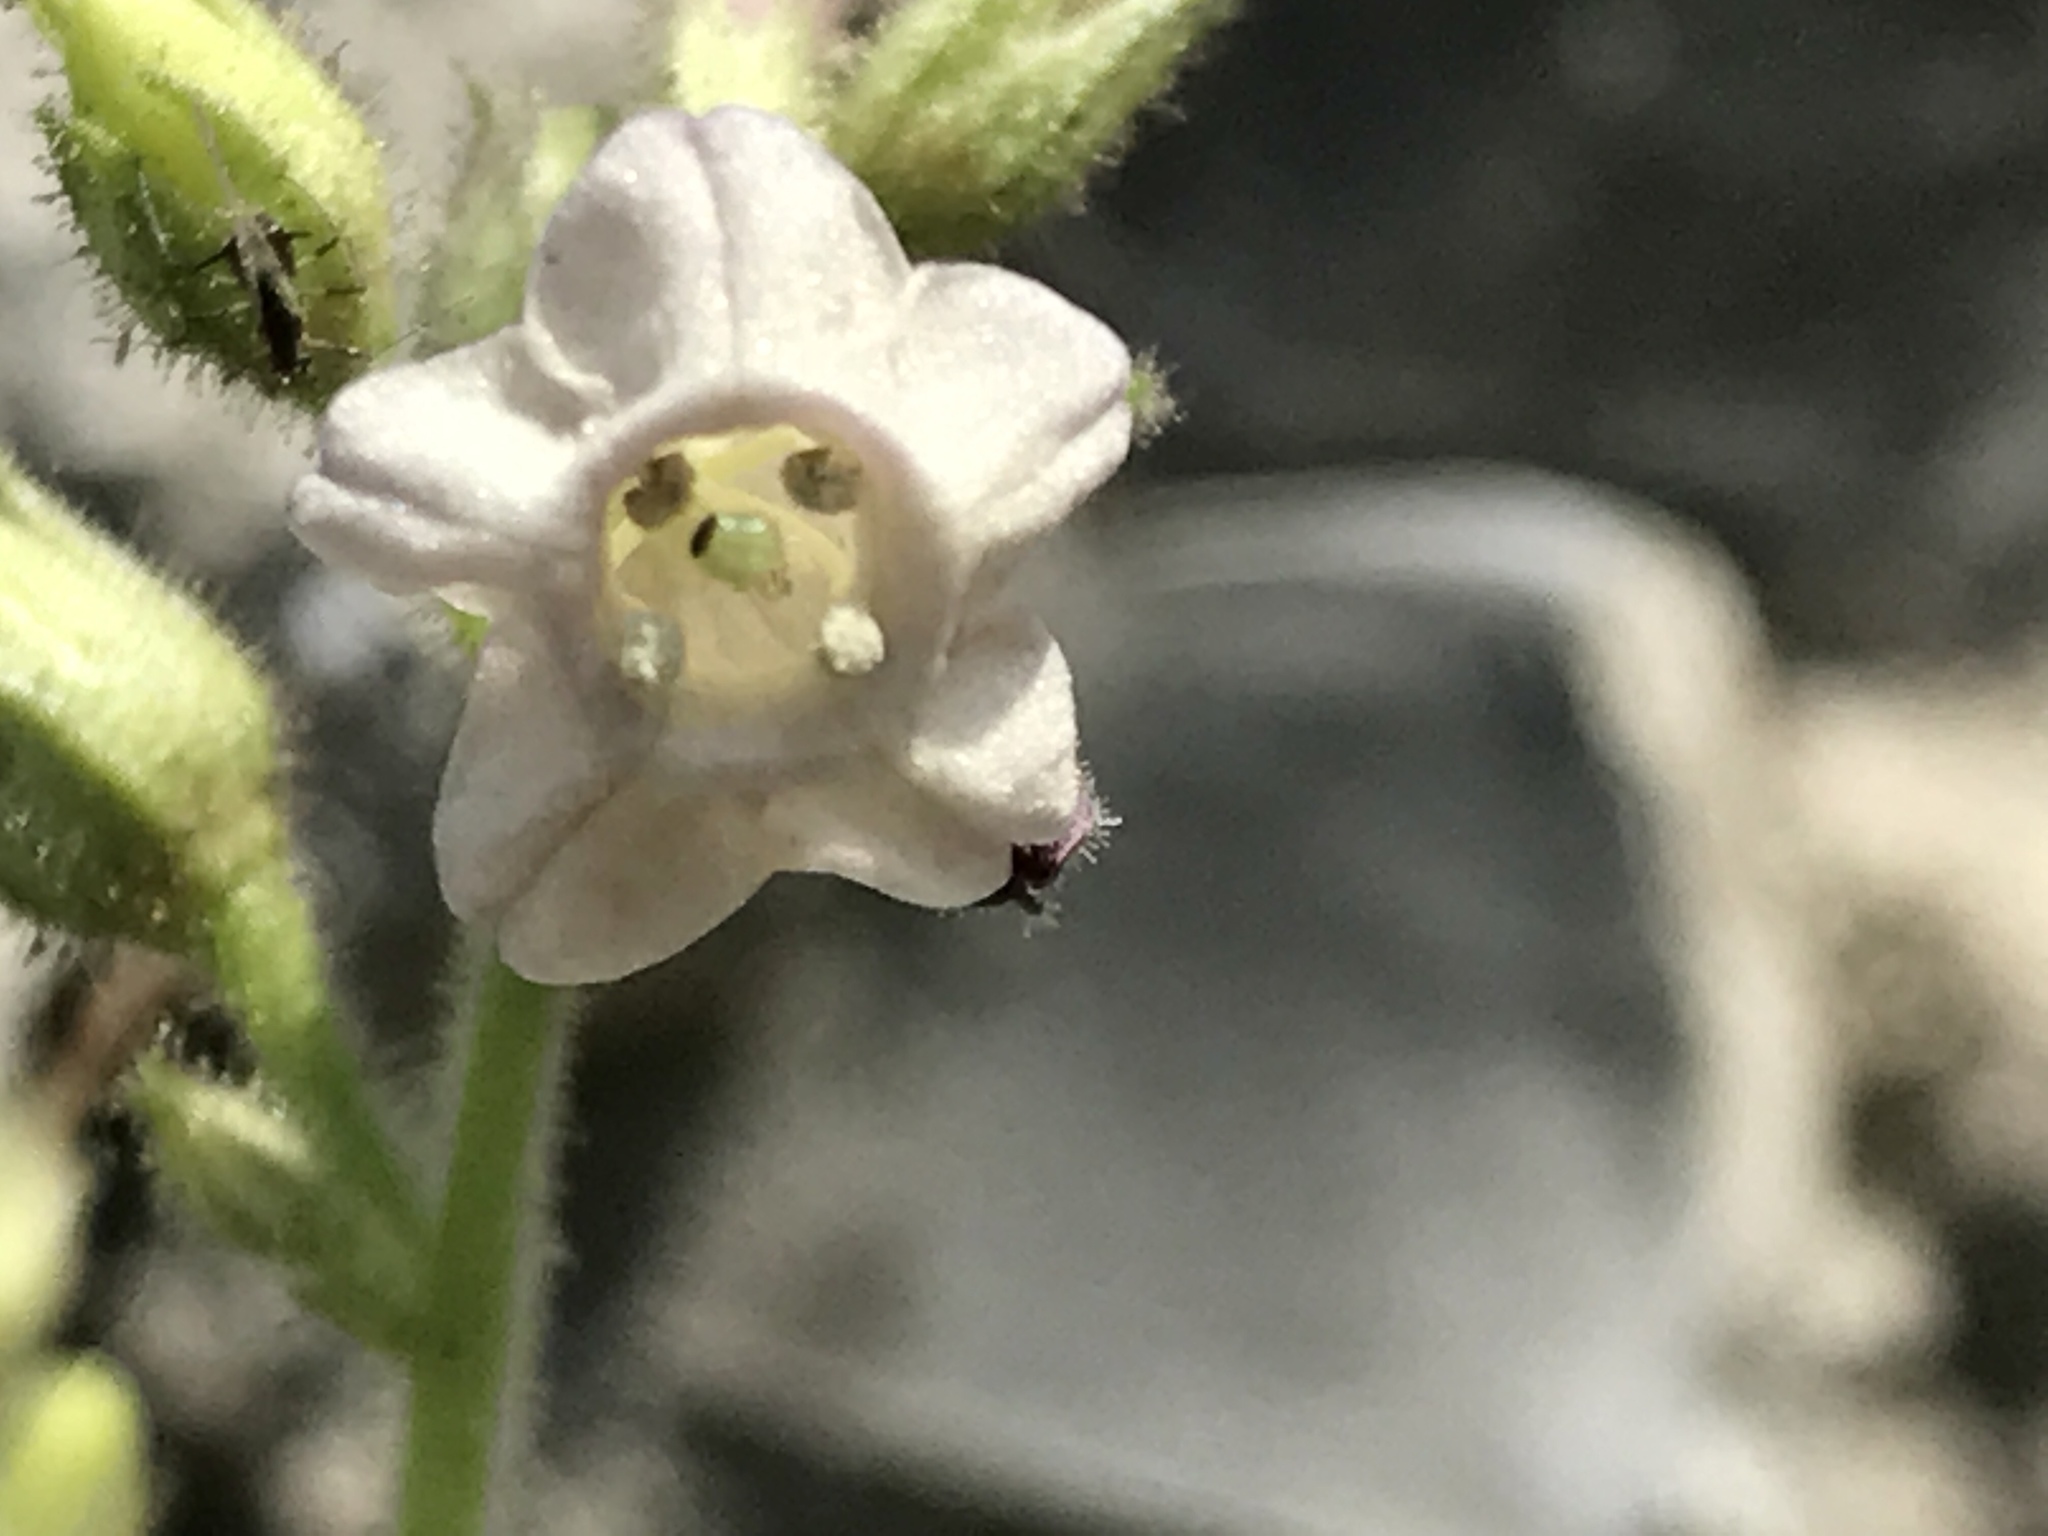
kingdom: Plantae
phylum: Tracheophyta
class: Magnoliopsida
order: Solanales
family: Solanaceae
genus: Nicotiana
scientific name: Nicotiana obtusifolia
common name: Desert tobacco
